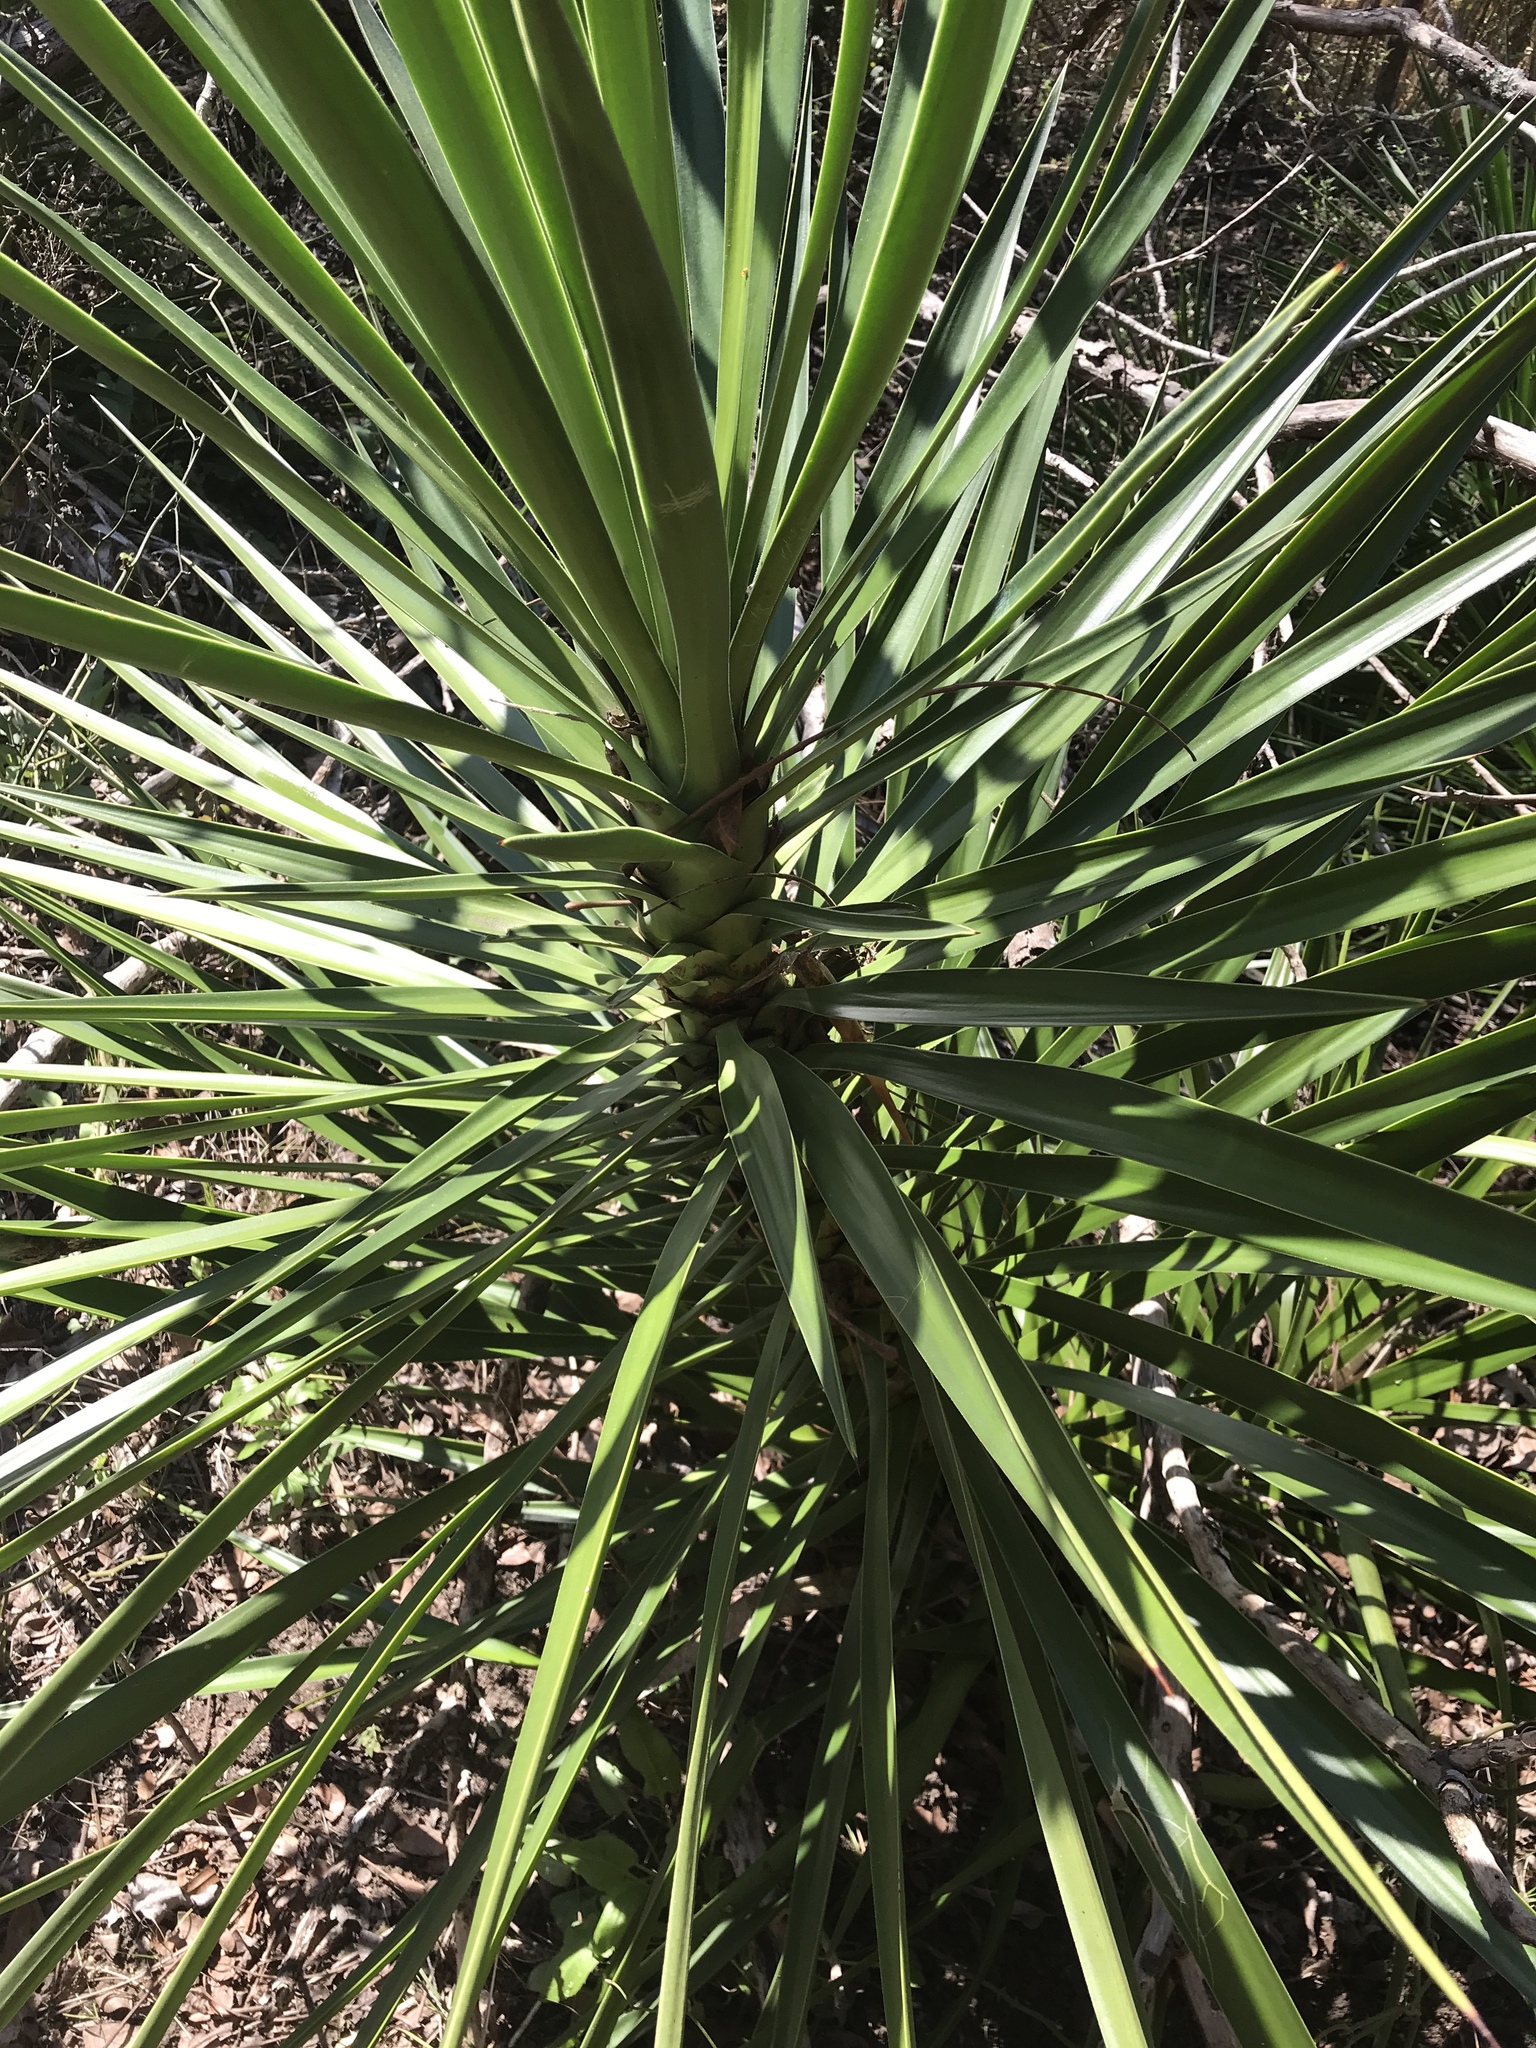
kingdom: Plantae
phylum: Tracheophyta
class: Liliopsida
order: Asparagales
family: Asparagaceae
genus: Yucca
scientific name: Yucca aloifolia
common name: Aloe yucca
